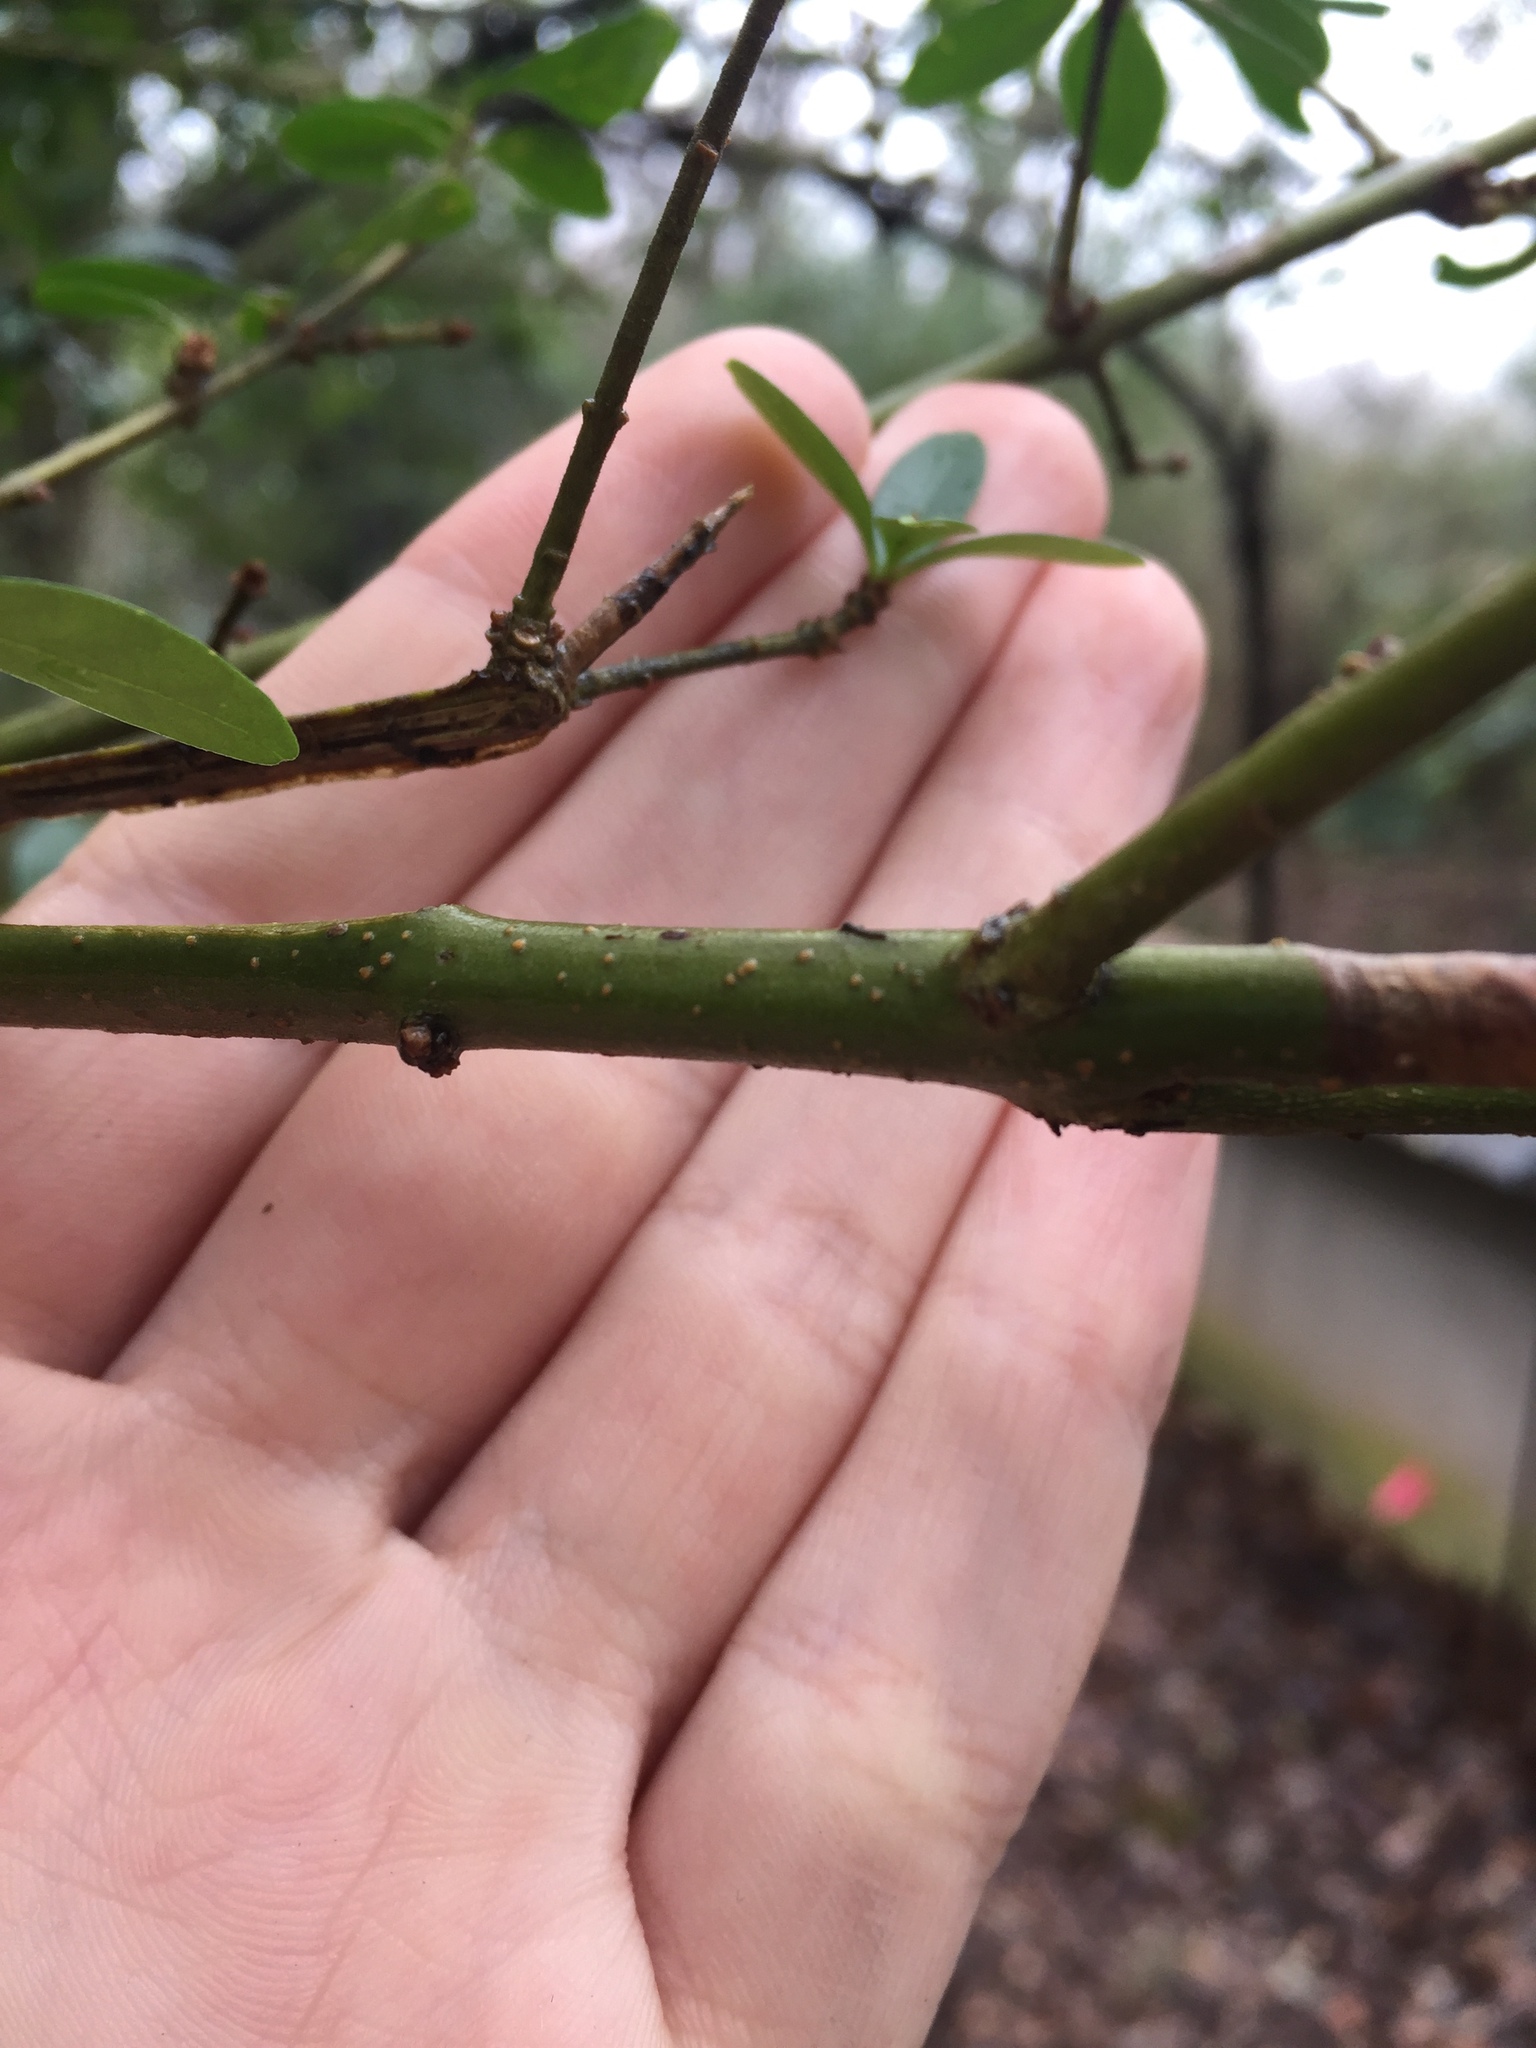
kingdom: Plantae
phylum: Tracheophyta
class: Magnoliopsida
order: Lamiales
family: Oleaceae
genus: Ligustrum
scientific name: Ligustrum quihoui
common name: Waxyleaf privet
